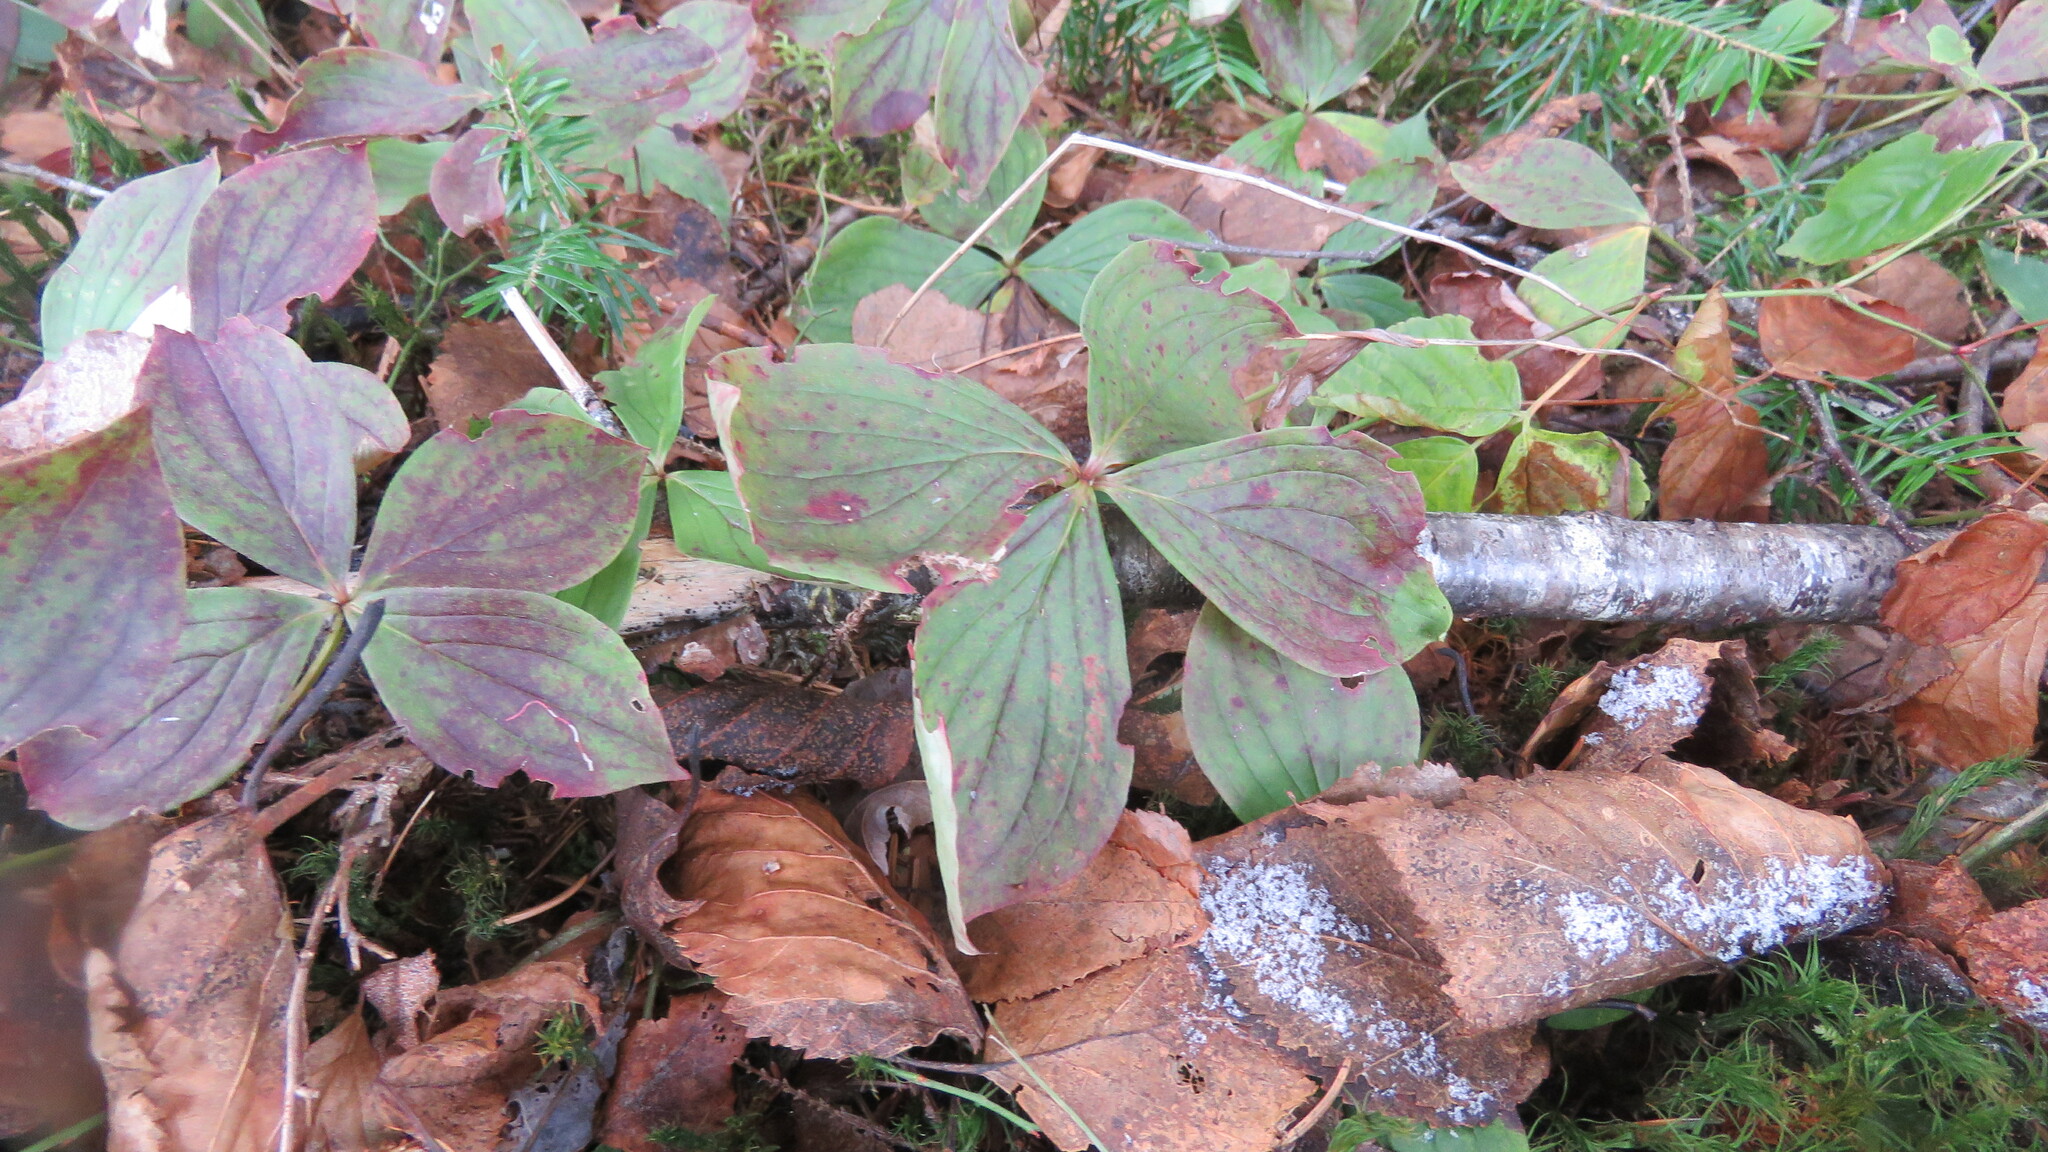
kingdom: Plantae
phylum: Tracheophyta
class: Magnoliopsida
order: Cornales
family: Cornaceae
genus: Cornus
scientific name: Cornus canadensis
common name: Creeping dogwood
